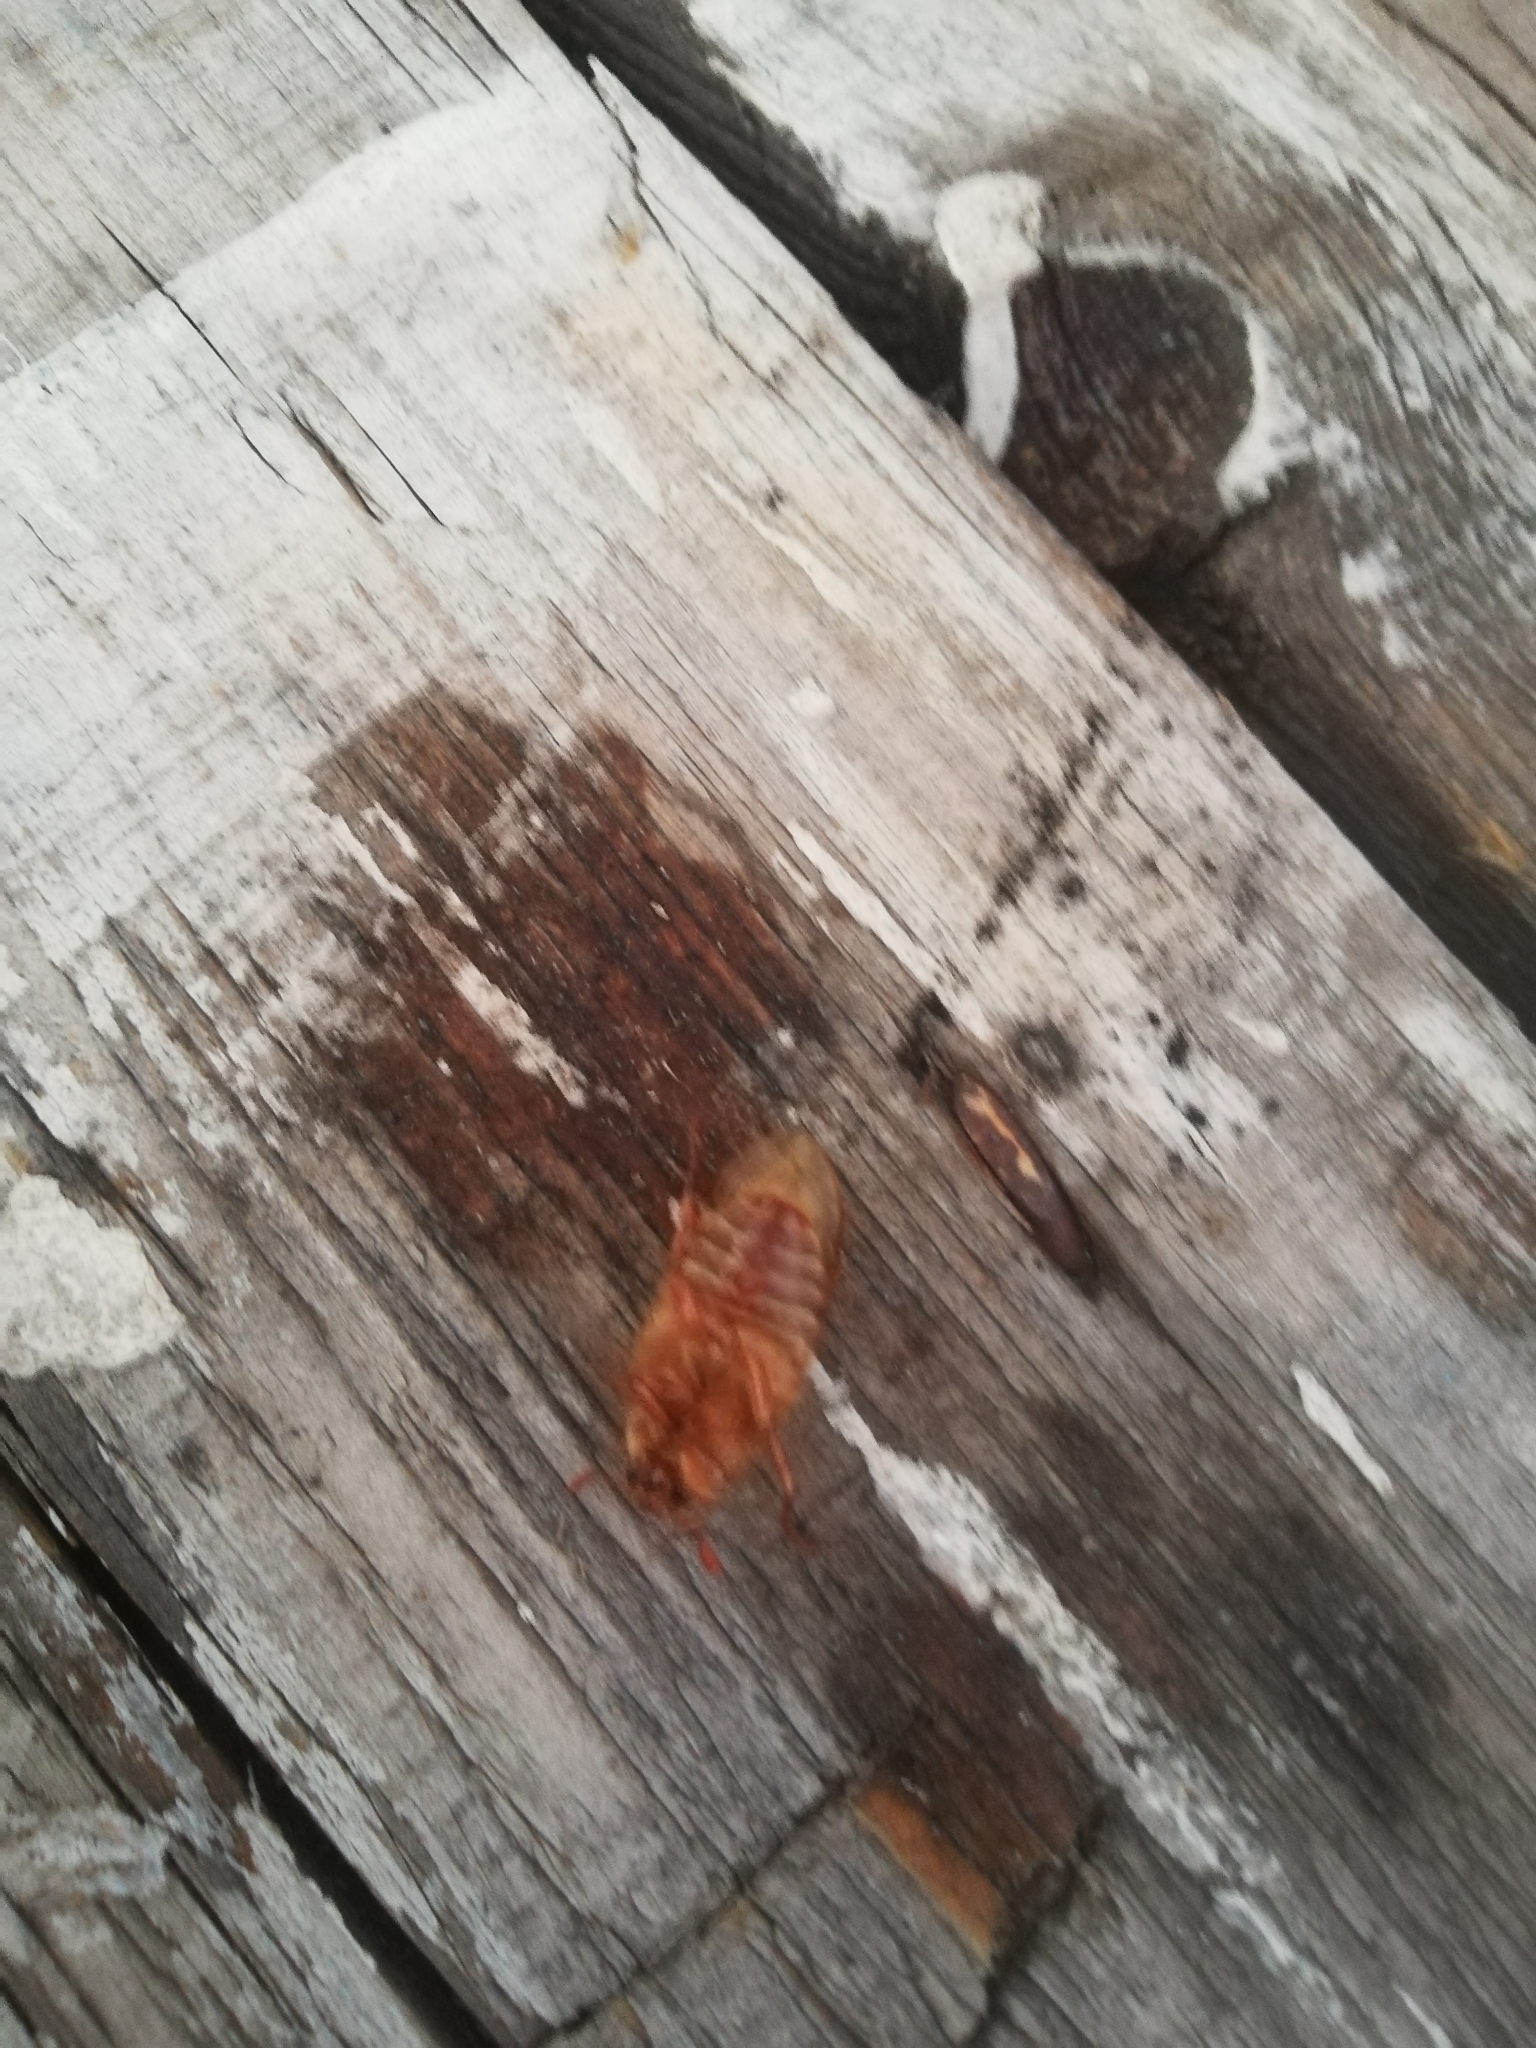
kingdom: Animalia
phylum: Arthropoda
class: Insecta
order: Coleoptera
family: Scarabaeidae
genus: Amphimallon
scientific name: Amphimallon solstitiale
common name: Summer chafer
